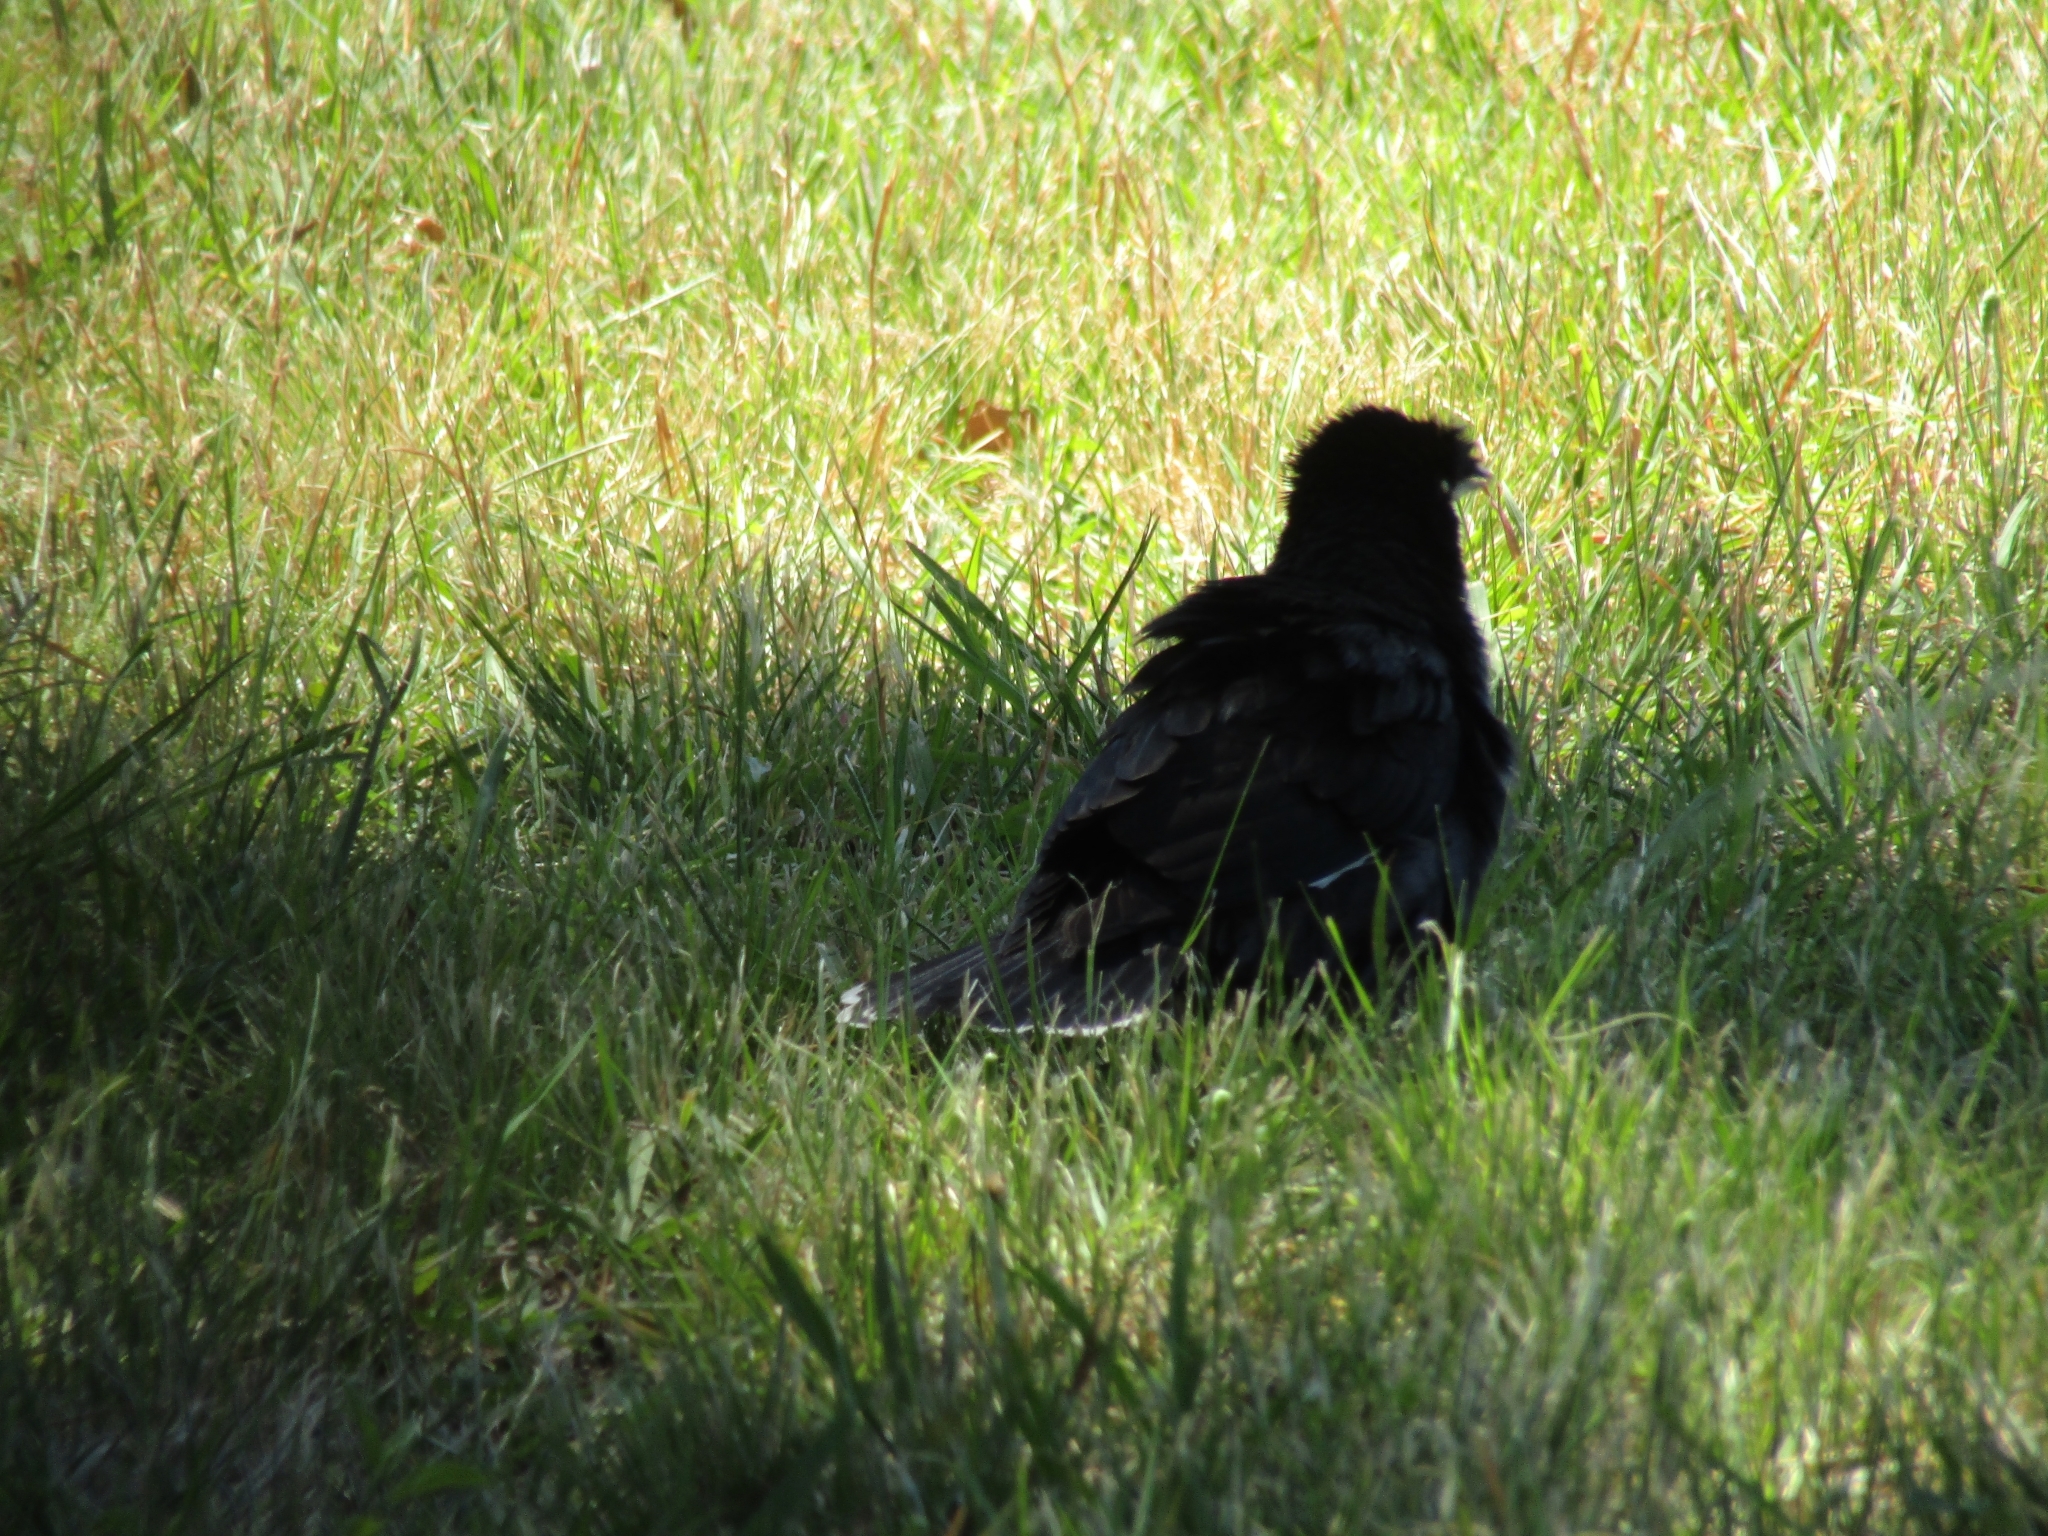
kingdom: Animalia
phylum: Chordata
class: Aves
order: Passeriformes
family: Sturnidae
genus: Acridotheres
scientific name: Acridotheres cristatellus
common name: Crested myna
